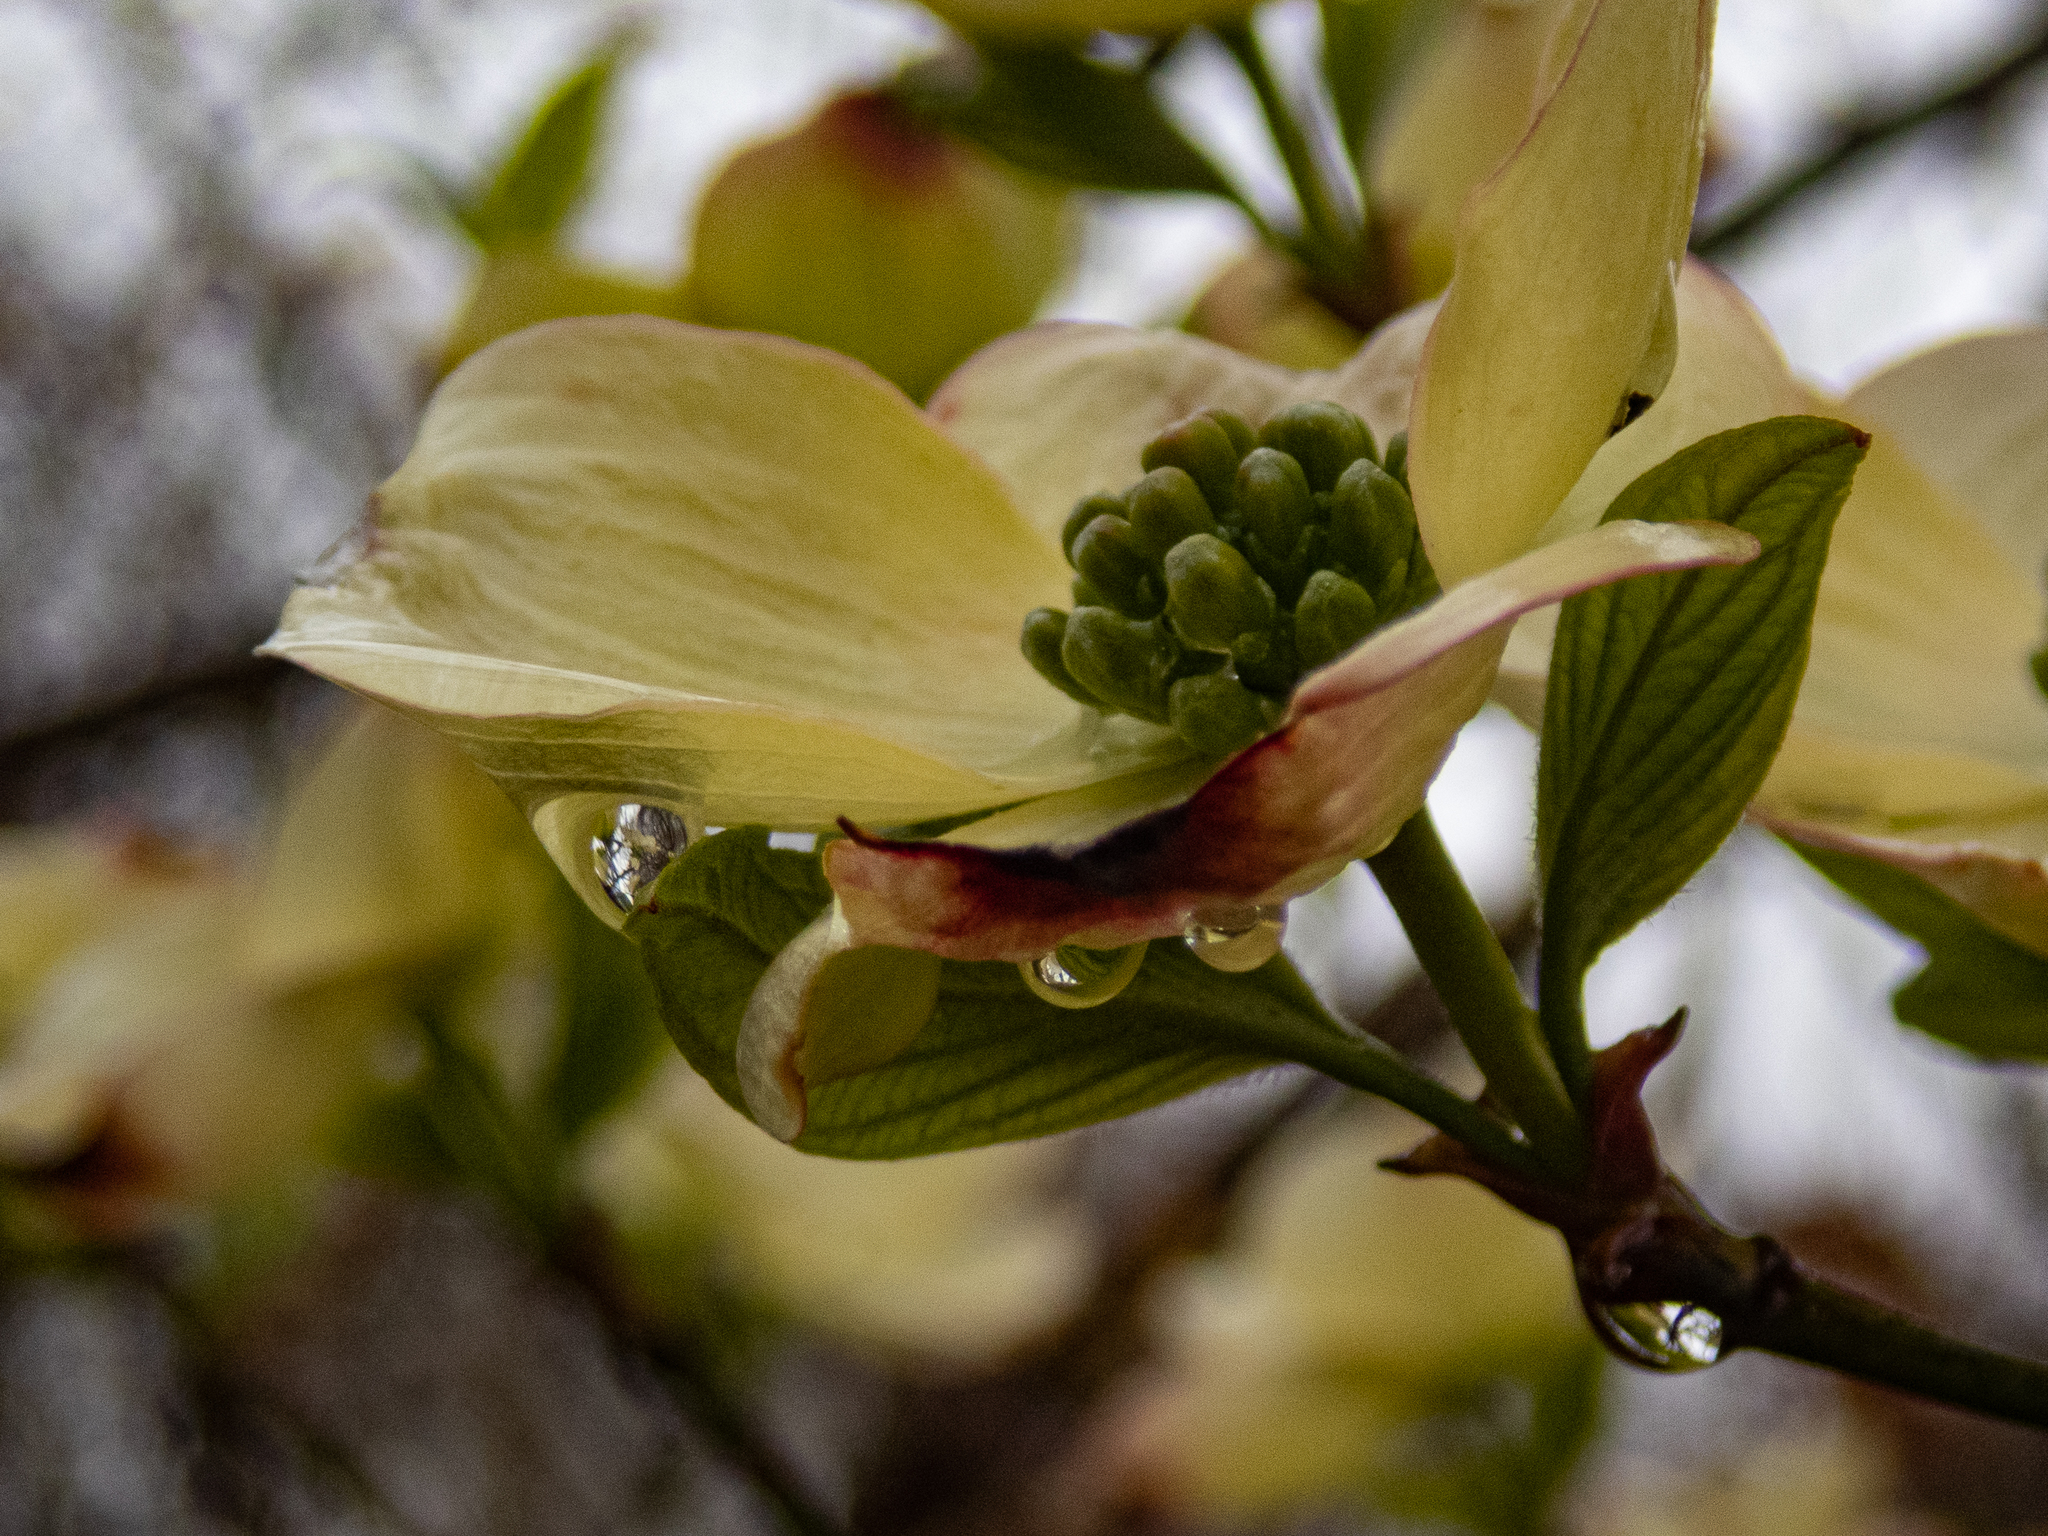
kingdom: Plantae
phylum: Tracheophyta
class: Magnoliopsida
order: Cornales
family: Cornaceae
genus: Cornus
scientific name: Cornus florida
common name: Flowering dogwood
